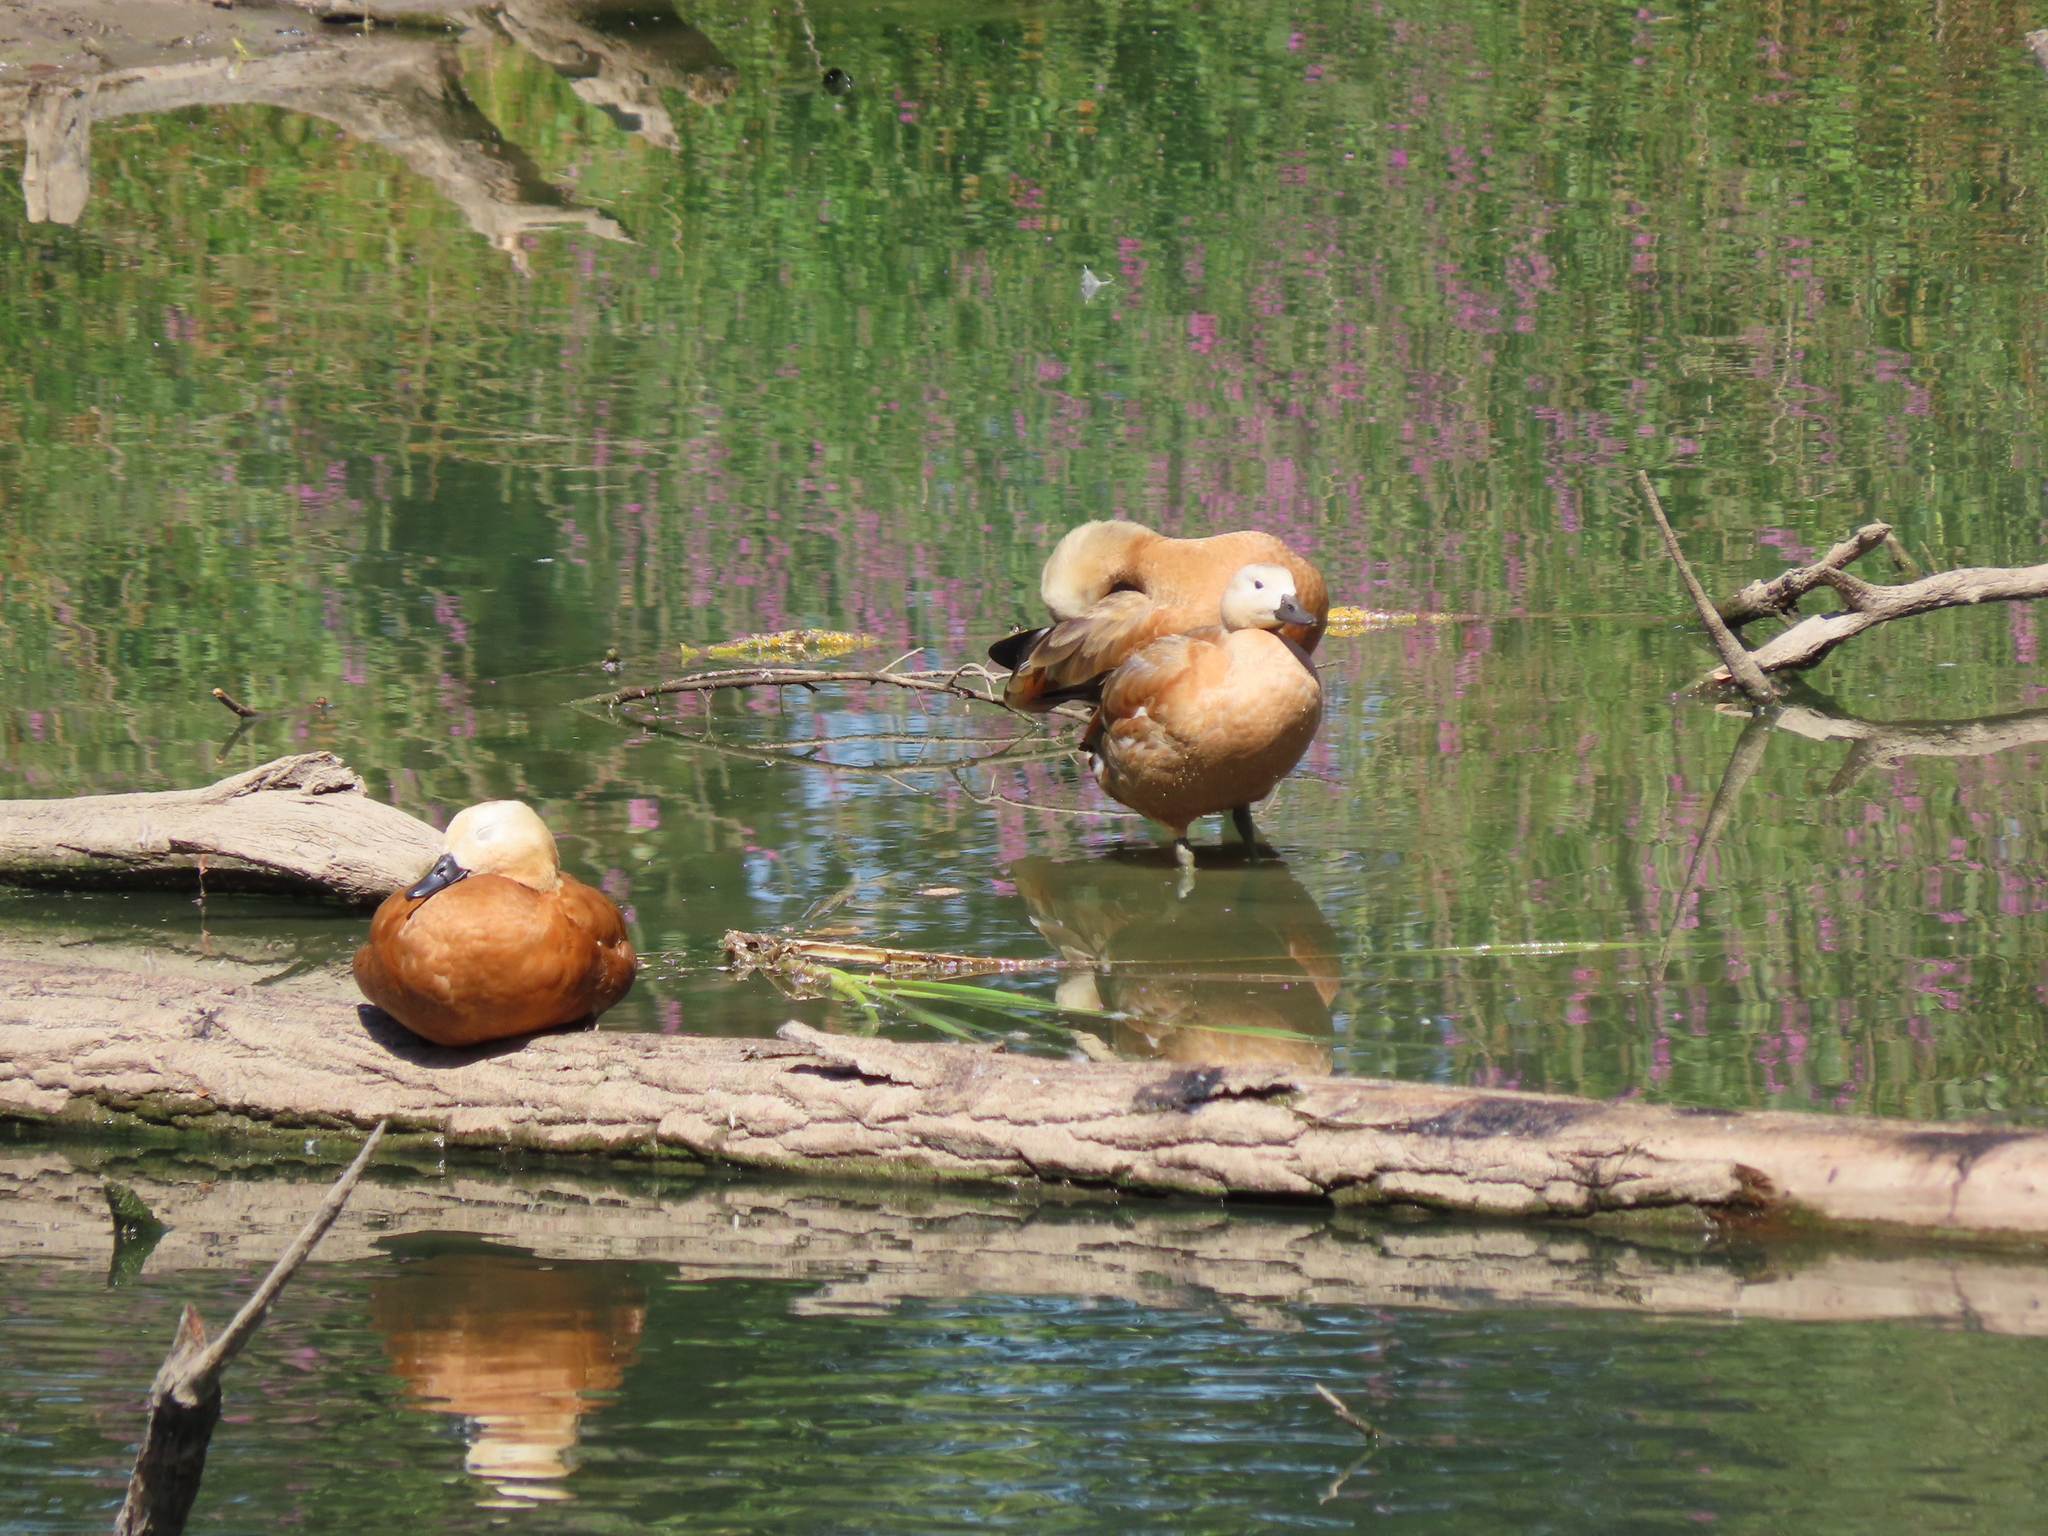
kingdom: Animalia
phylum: Chordata
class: Aves
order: Anseriformes
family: Anatidae
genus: Tadorna
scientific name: Tadorna ferruginea
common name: Ruddy shelduck
